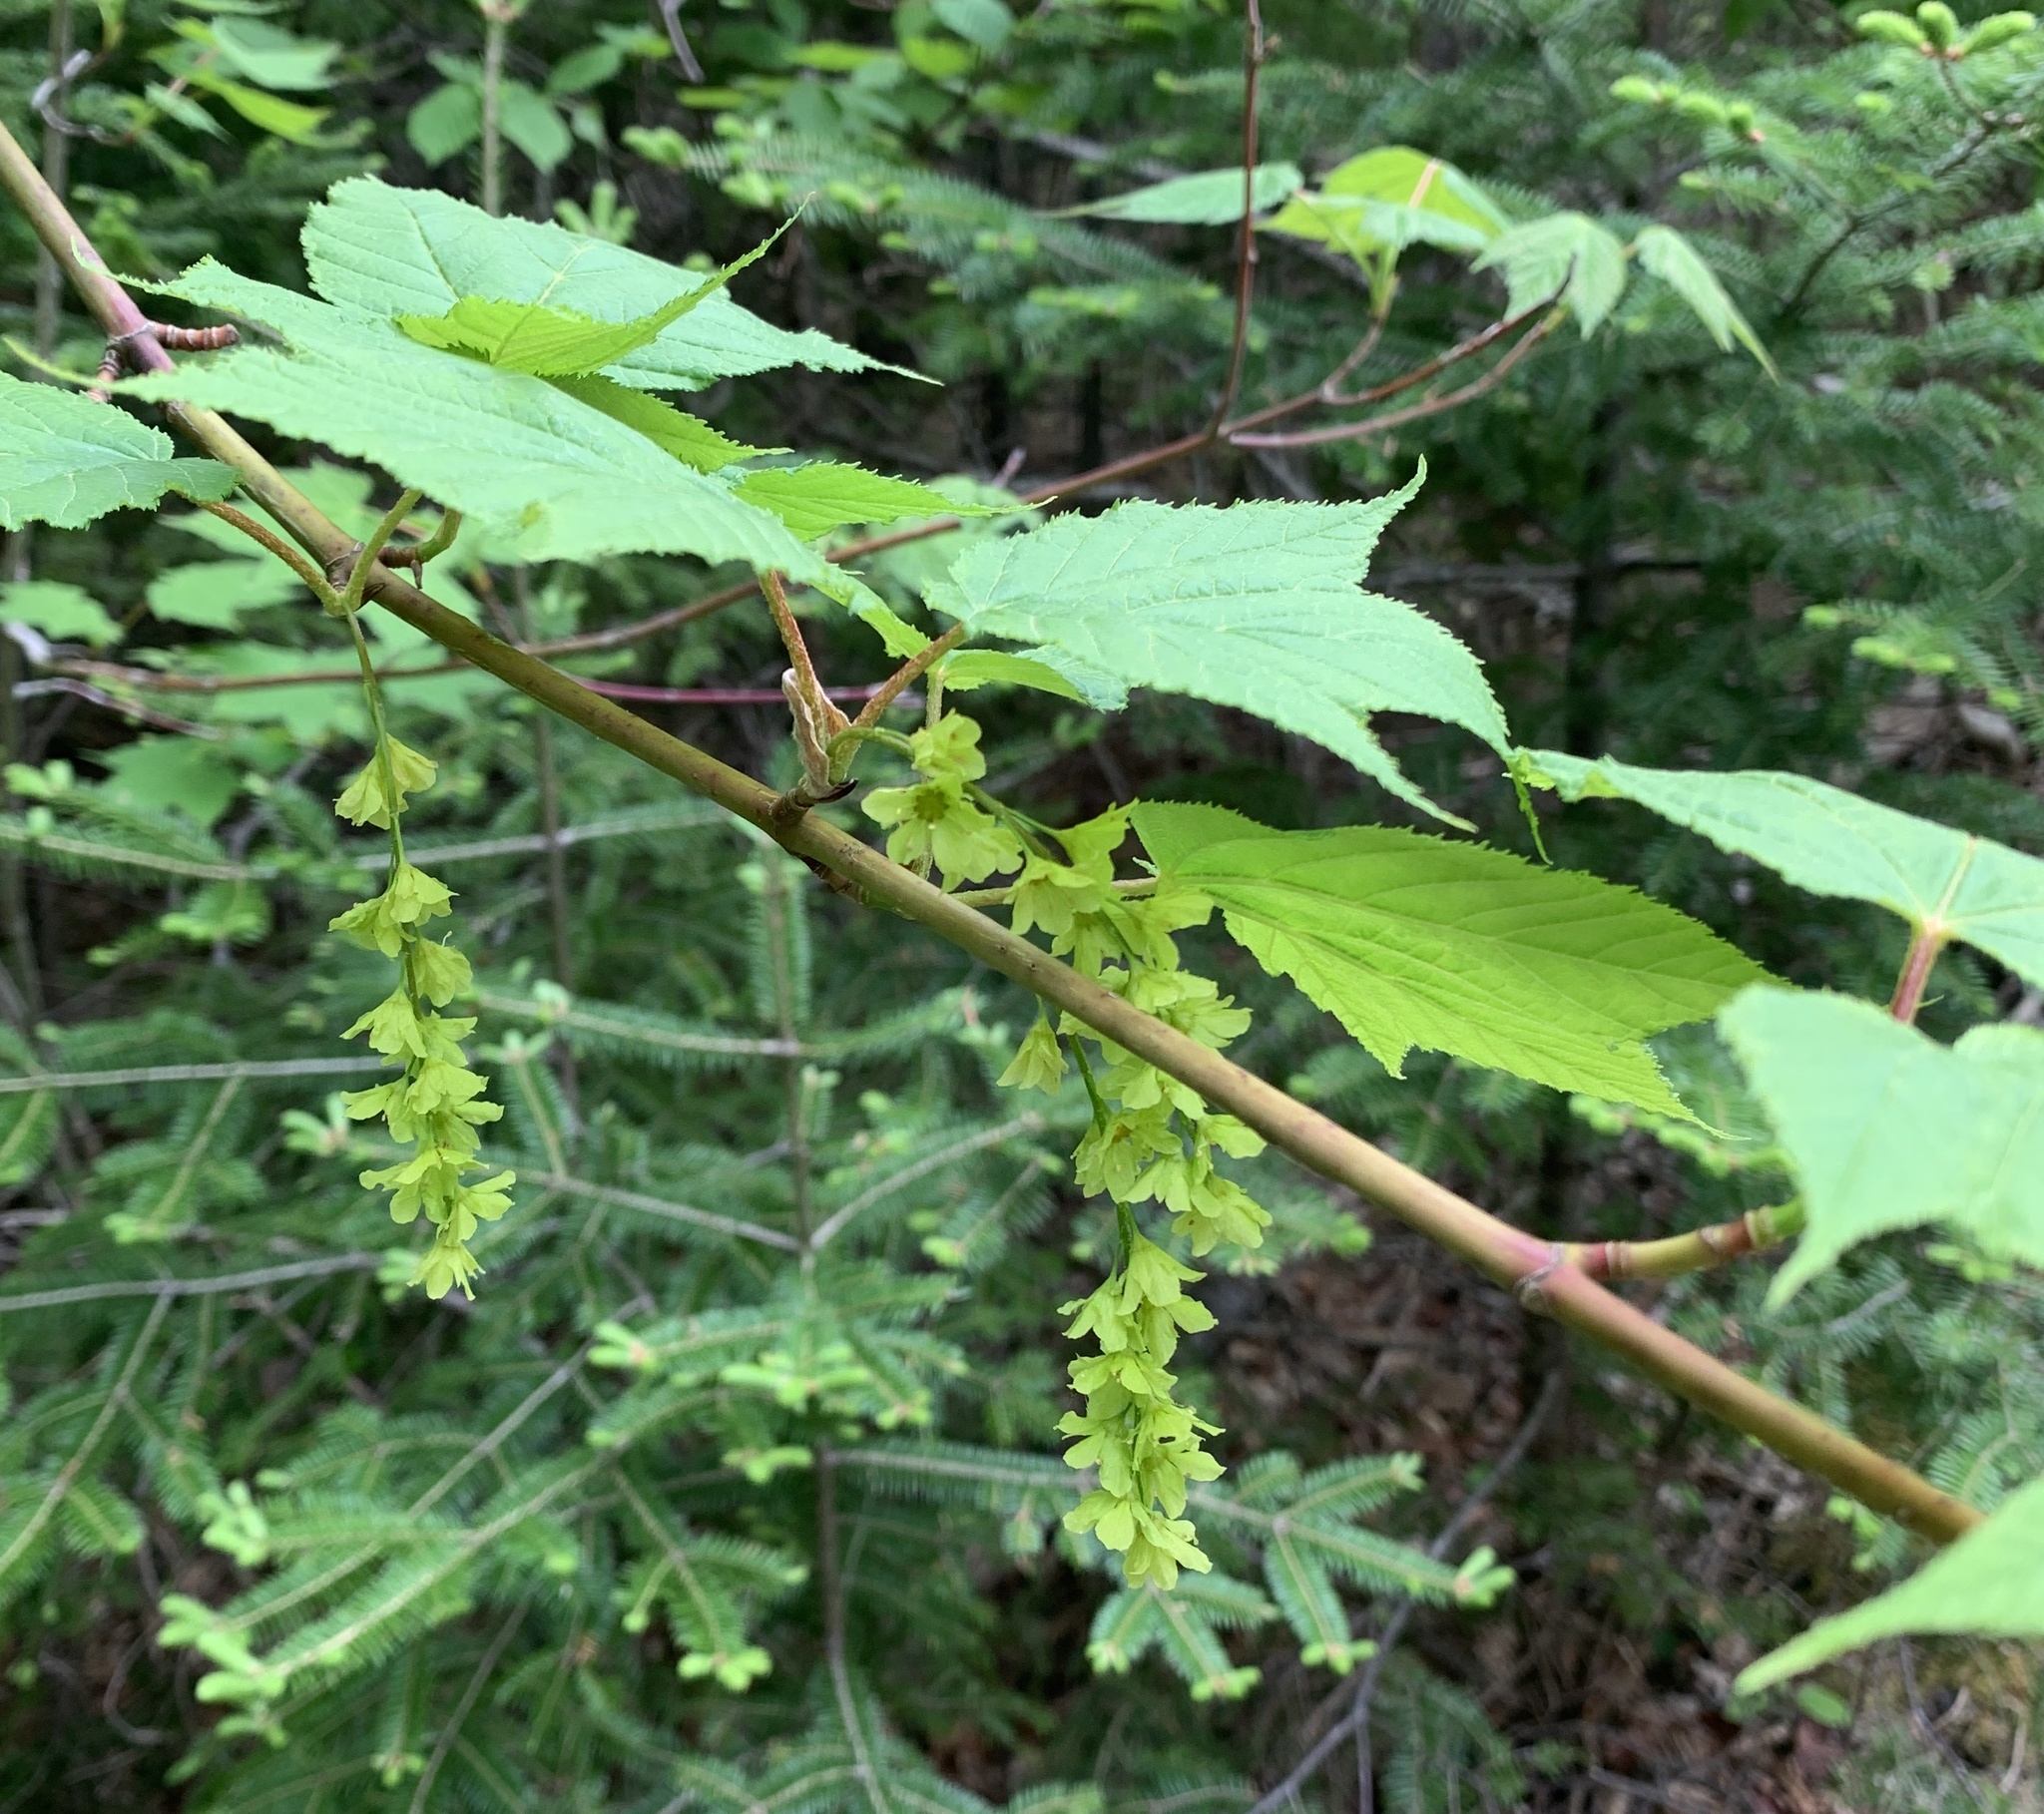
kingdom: Plantae
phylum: Tracheophyta
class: Magnoliopsida
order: Sapindales
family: Sapindaceae
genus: Acer
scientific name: Acer pensylvanicum
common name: Moosewood
